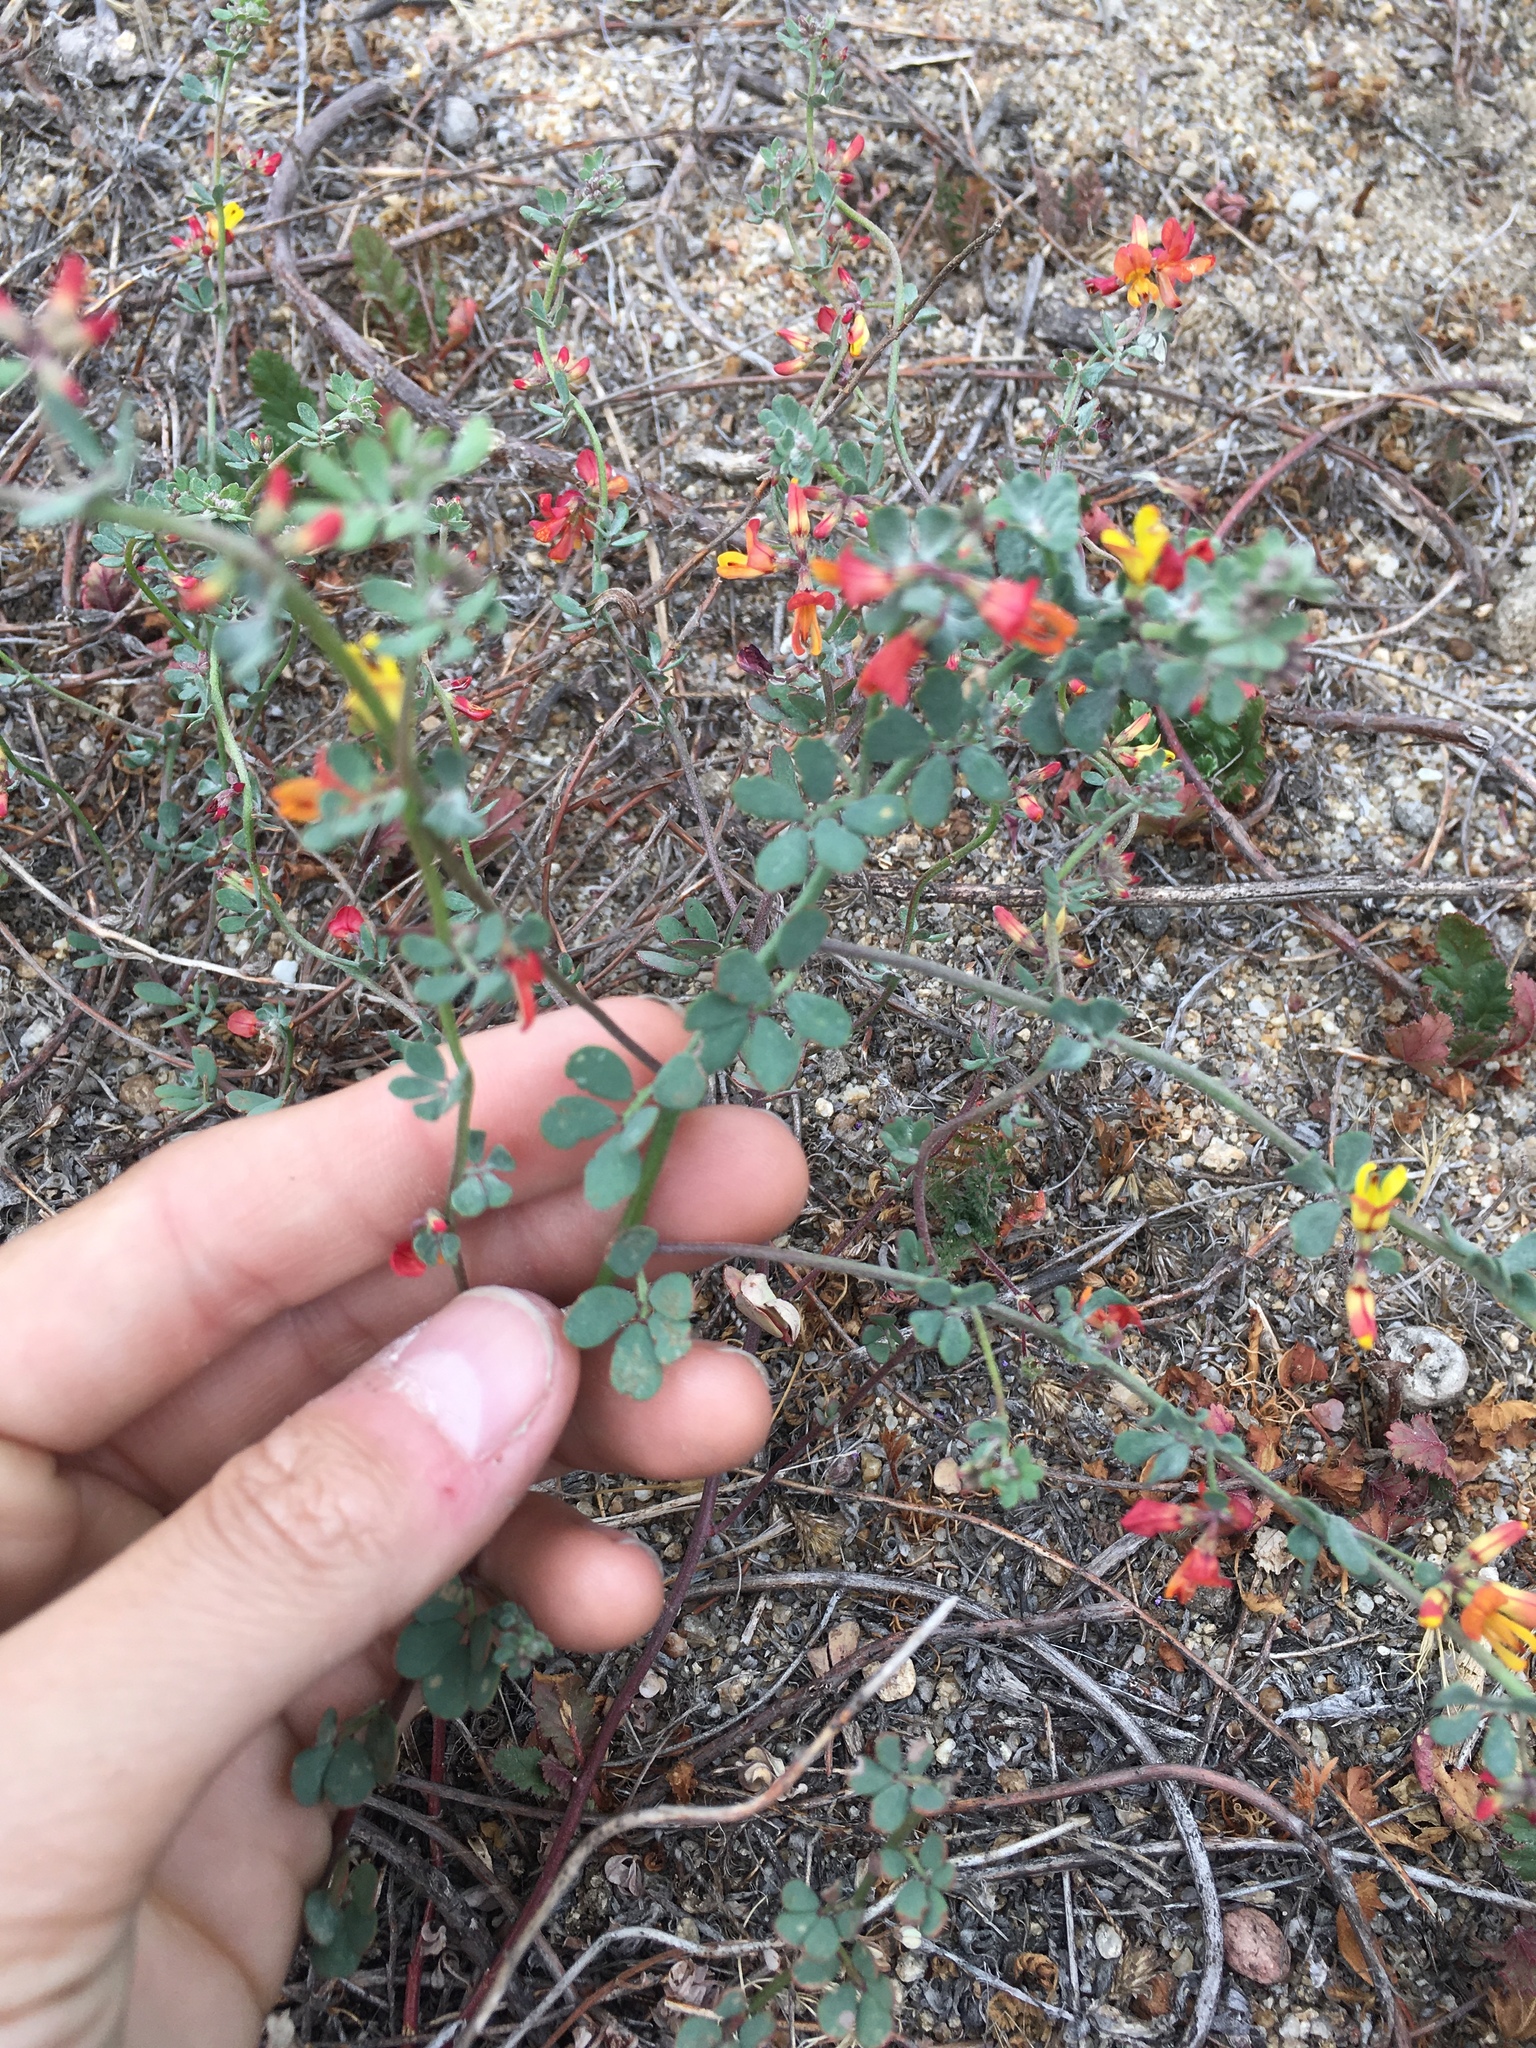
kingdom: Plantae
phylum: Tracheophyta
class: Magnoliopsida
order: Fabales
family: Fabaceae
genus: Acmispon
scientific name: Acmispon prostratus
